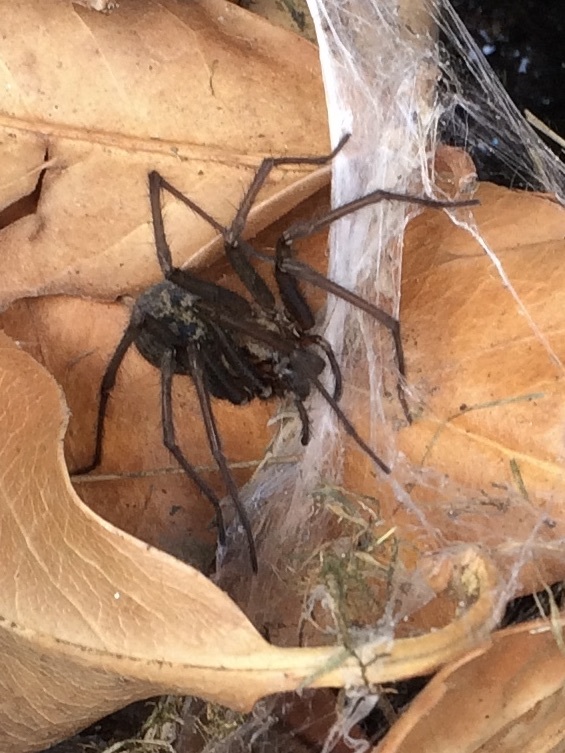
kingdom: Animalia
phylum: Arthropoda
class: Arachnida
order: Araneae
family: Agelenidae
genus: Eratigena
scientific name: Eratigena duellica
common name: Giant house spider
